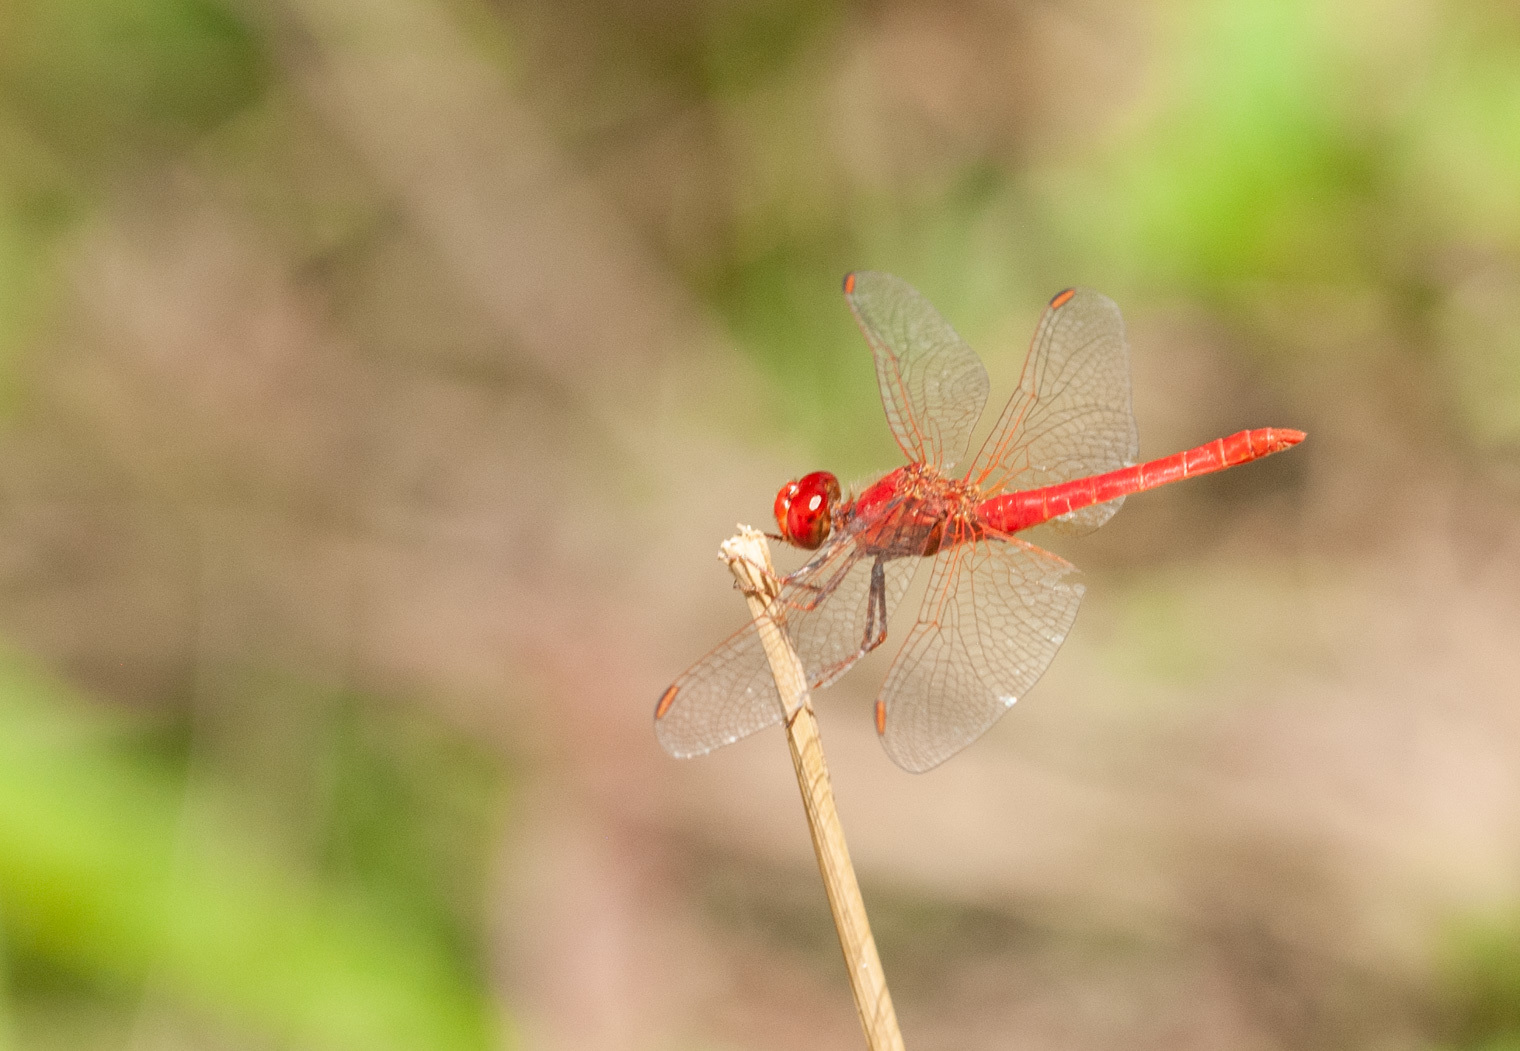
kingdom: Animalia
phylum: Arthropoda
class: Insecta
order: Odonata
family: Libellulidae
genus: Diplacodes
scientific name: Diplacodes haematodes
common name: Scarlet percher
